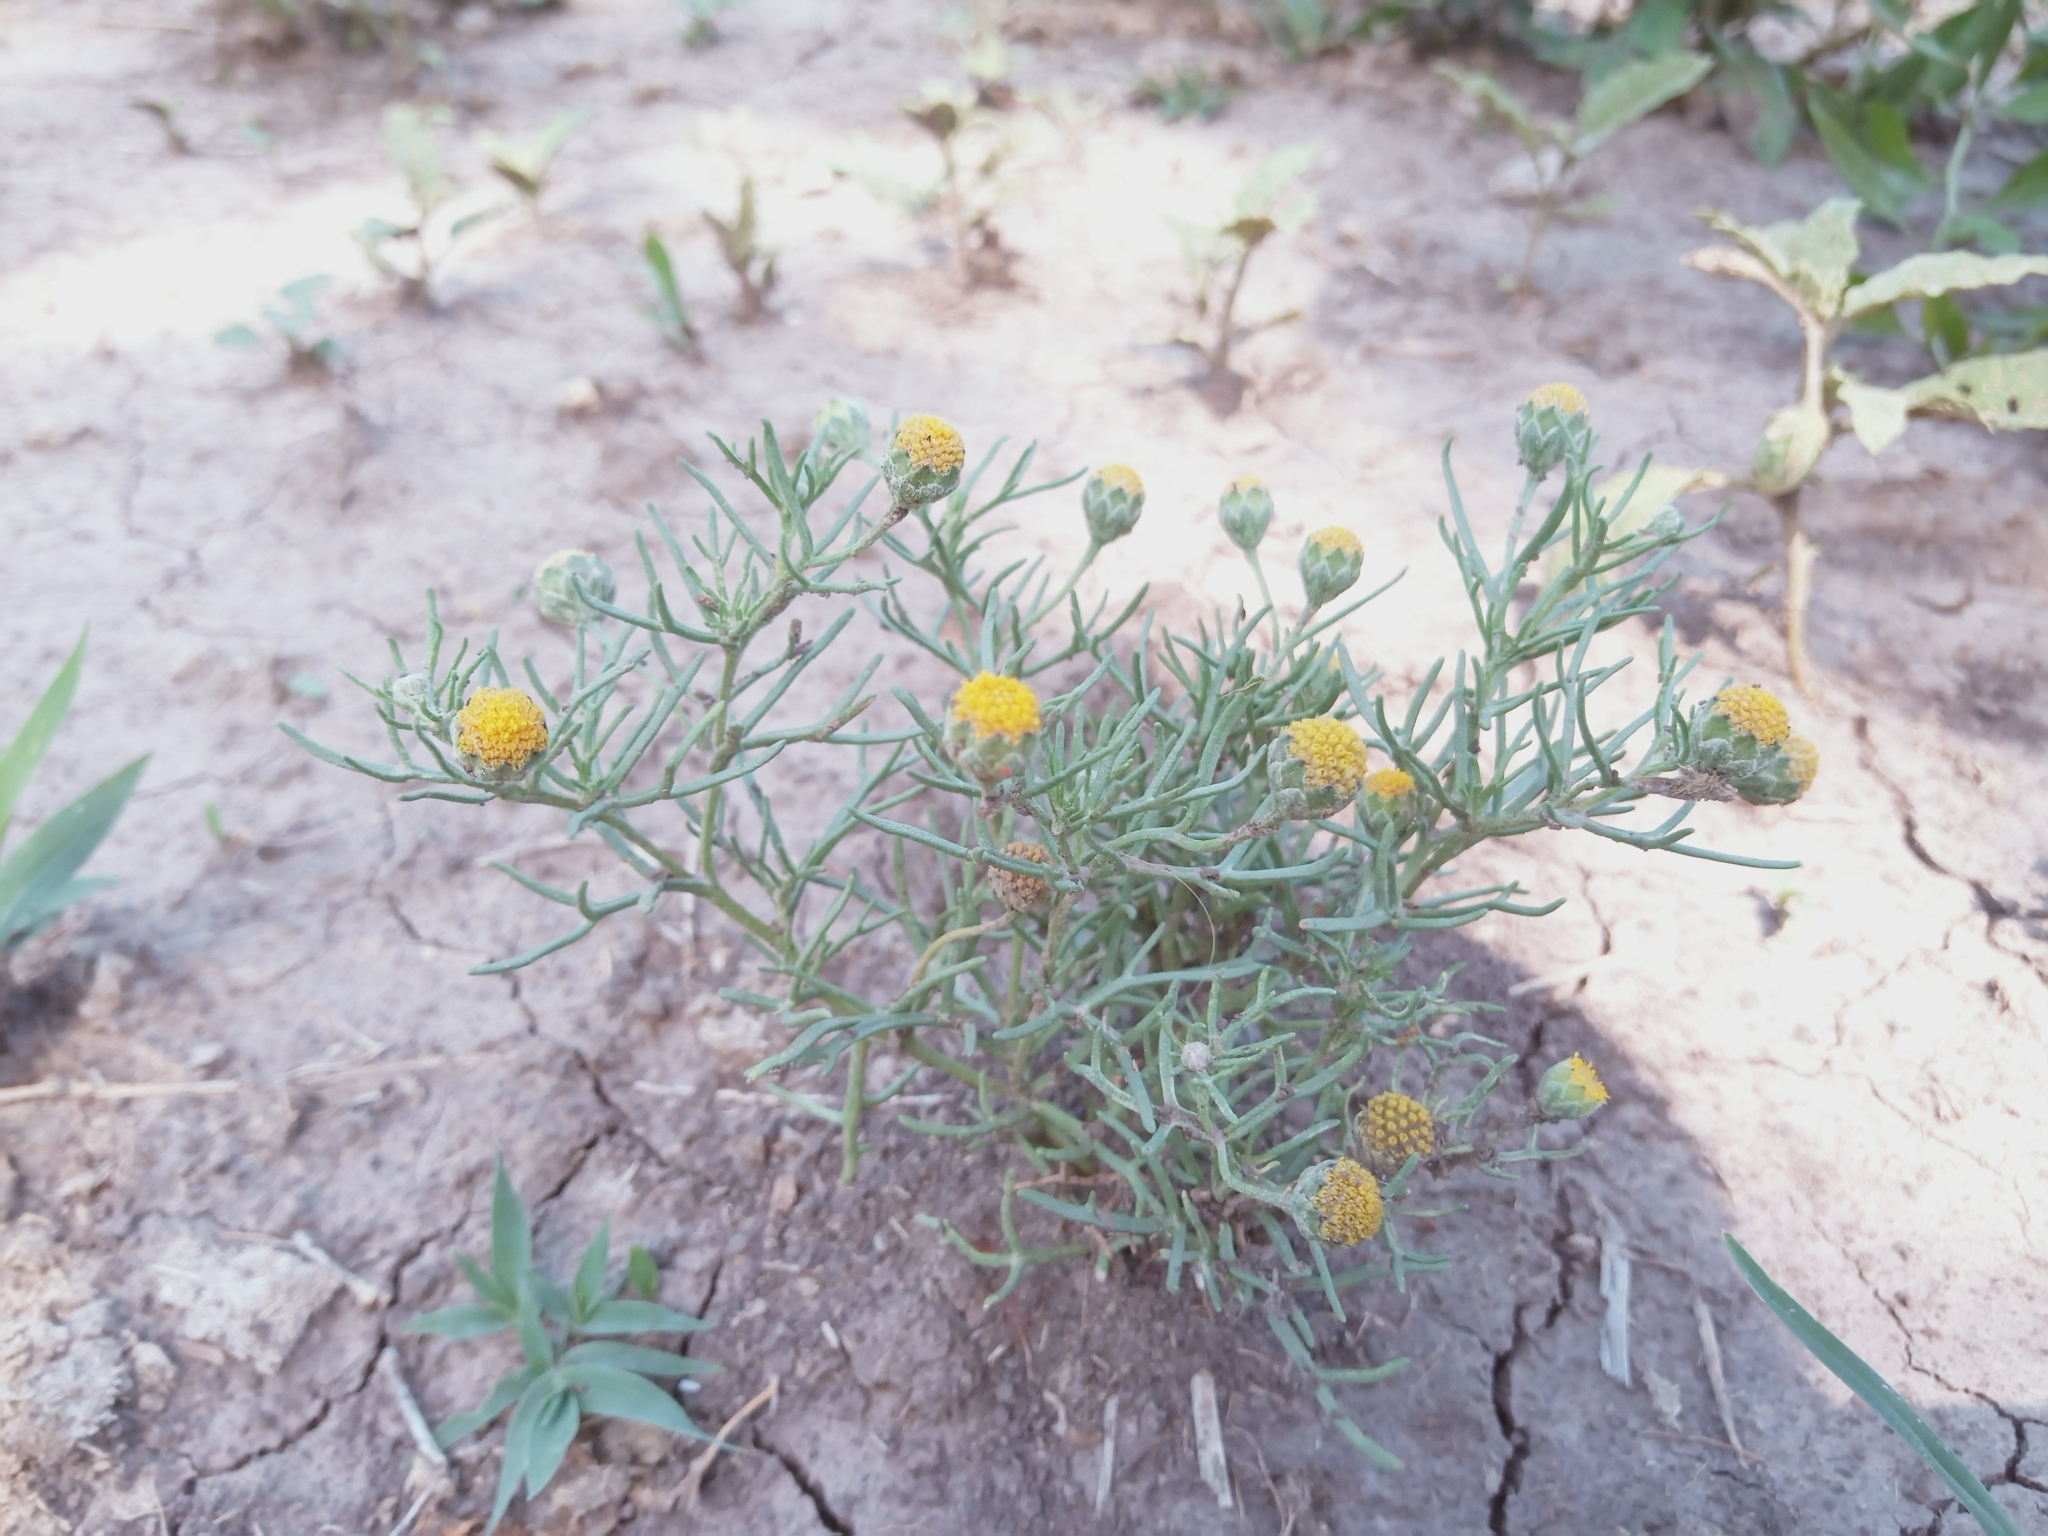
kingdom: Plantae
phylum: Tracheophyta
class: Magnoliopsida
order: Asterales
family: Asteraceae
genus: Hymenoxys
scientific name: Hymenoxys anthemoides
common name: South american rubberweed
